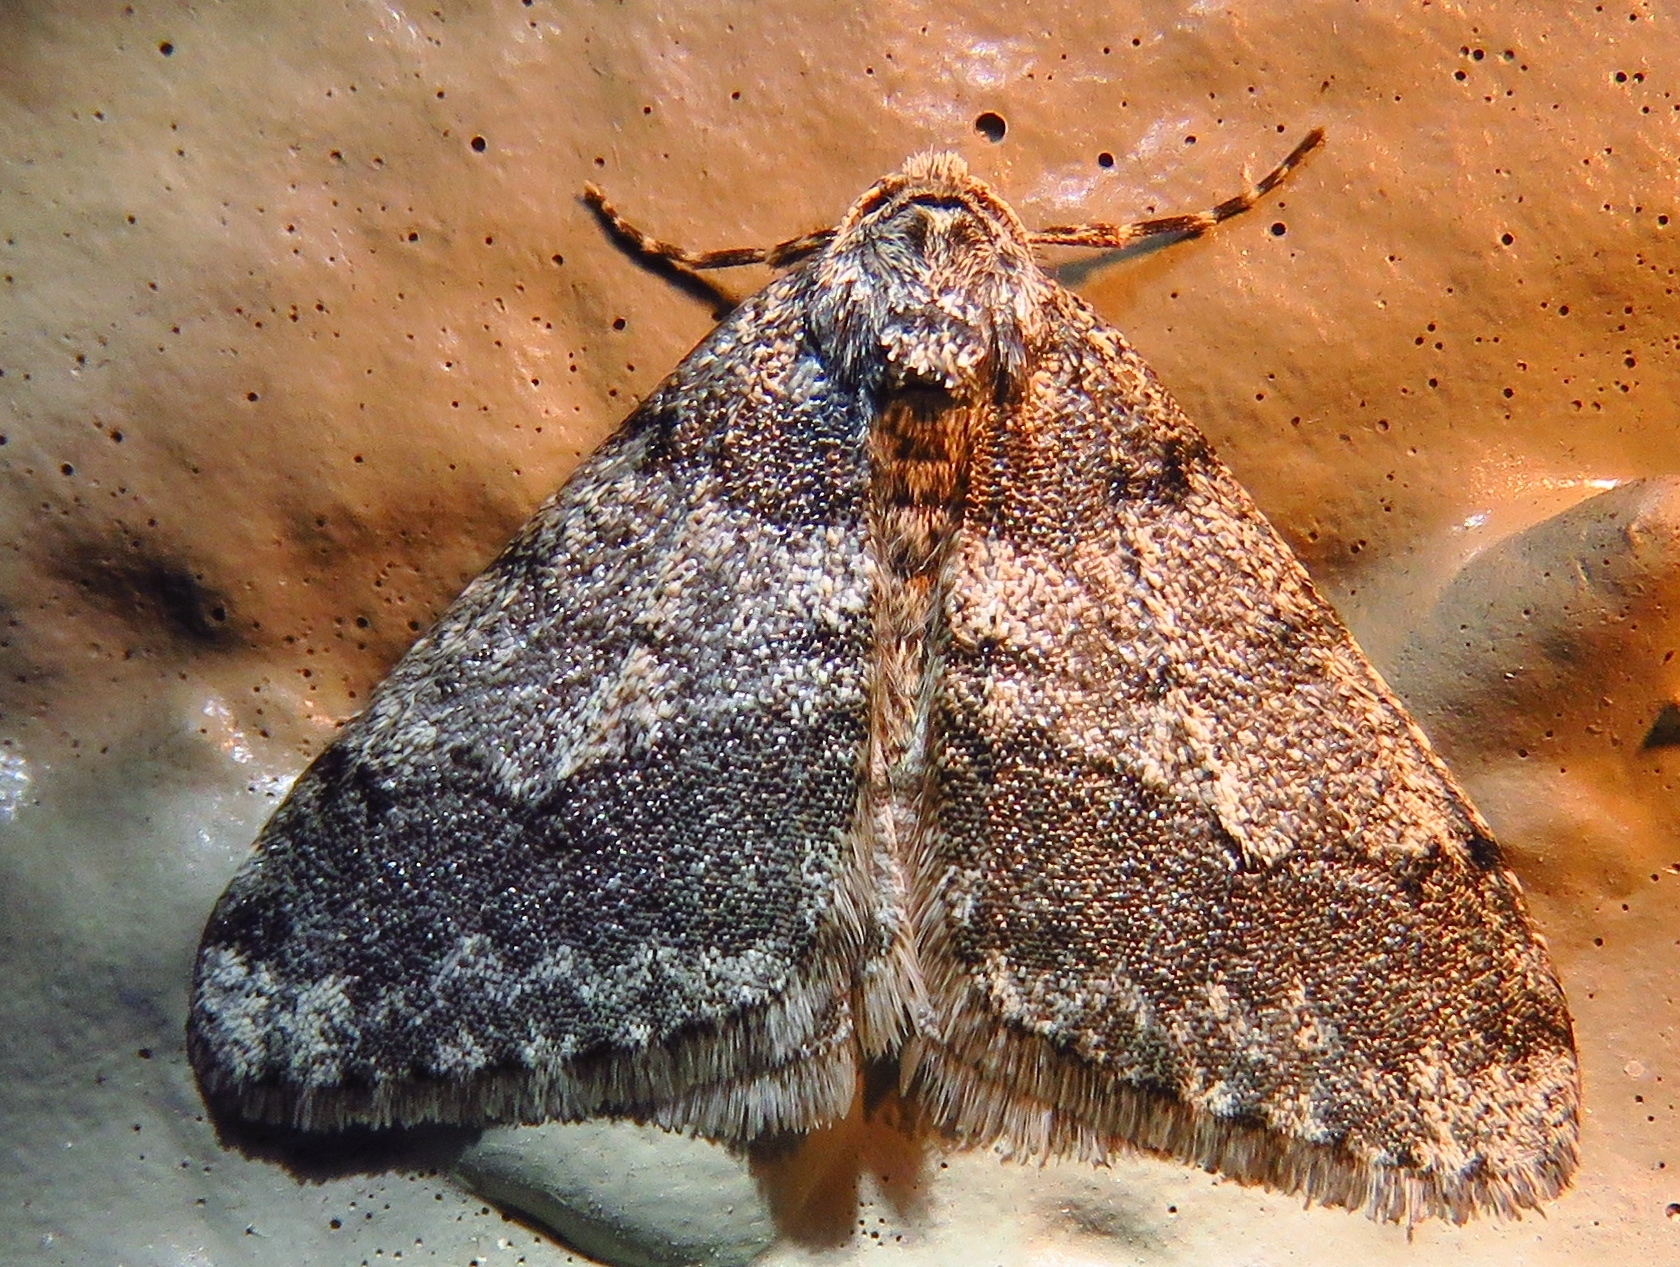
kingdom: Animalia
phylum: Arthropoda
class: Insecta
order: Lepidoptera
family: Geometridae
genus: Phigalia
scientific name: Phigalia strigataria
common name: Small phigalia
